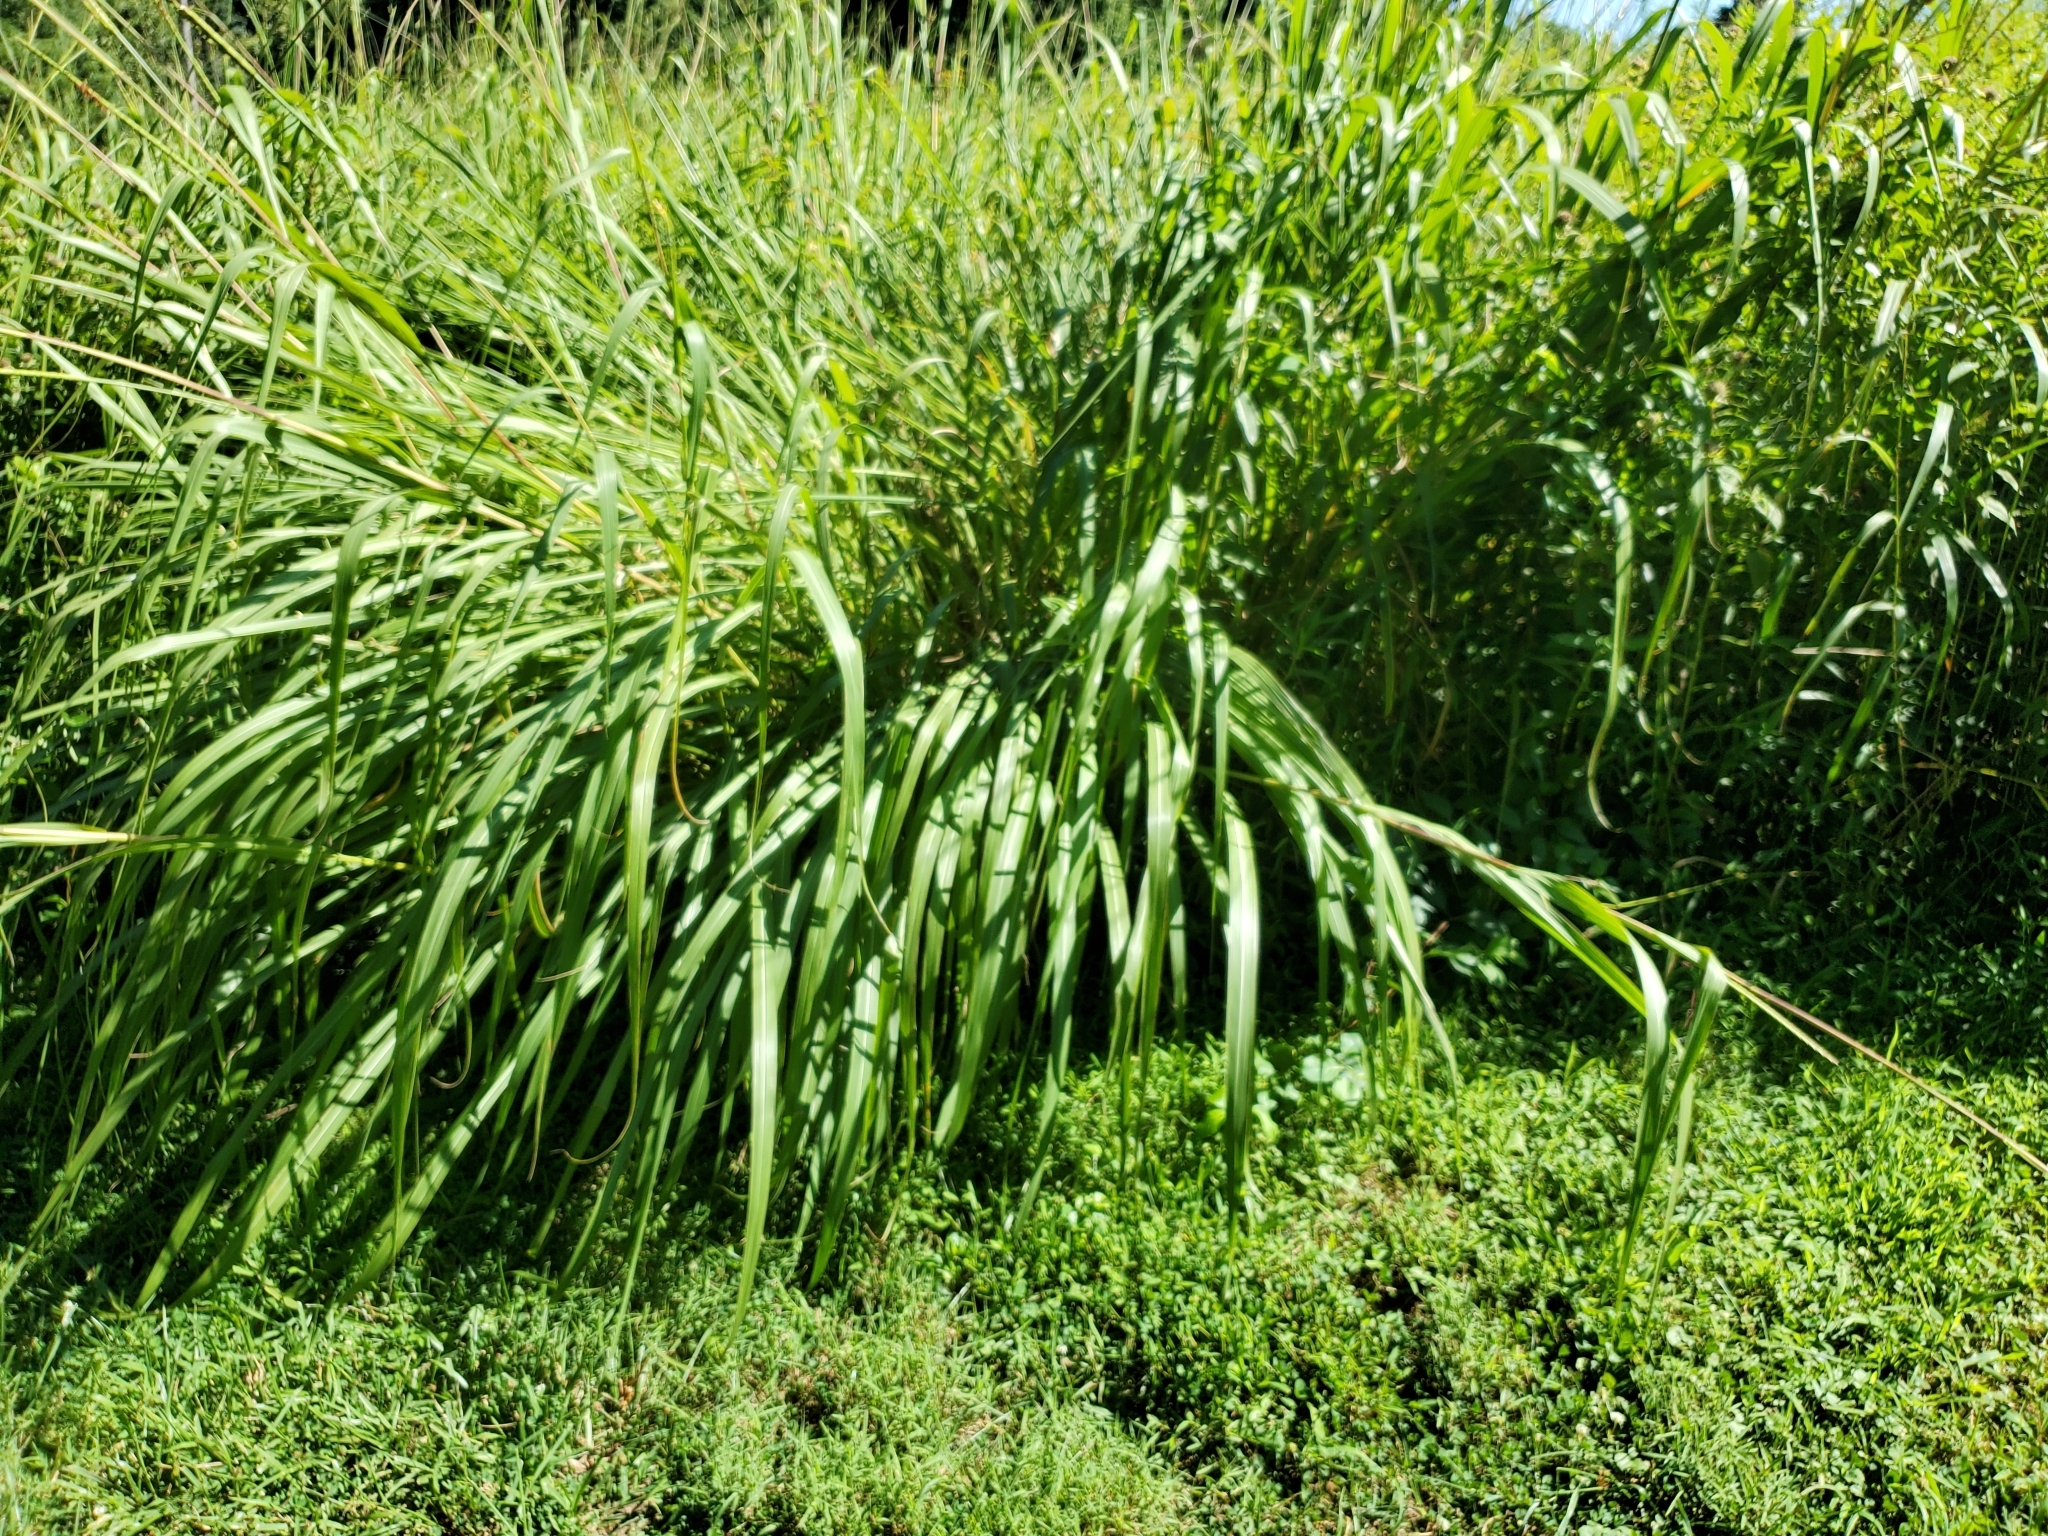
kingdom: Plantae
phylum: Tracheophyta
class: Liliopsida
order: Poales
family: Poaceae
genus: Tripsacum
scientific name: Tripsacum dactyloides
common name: Buffalo-grass
